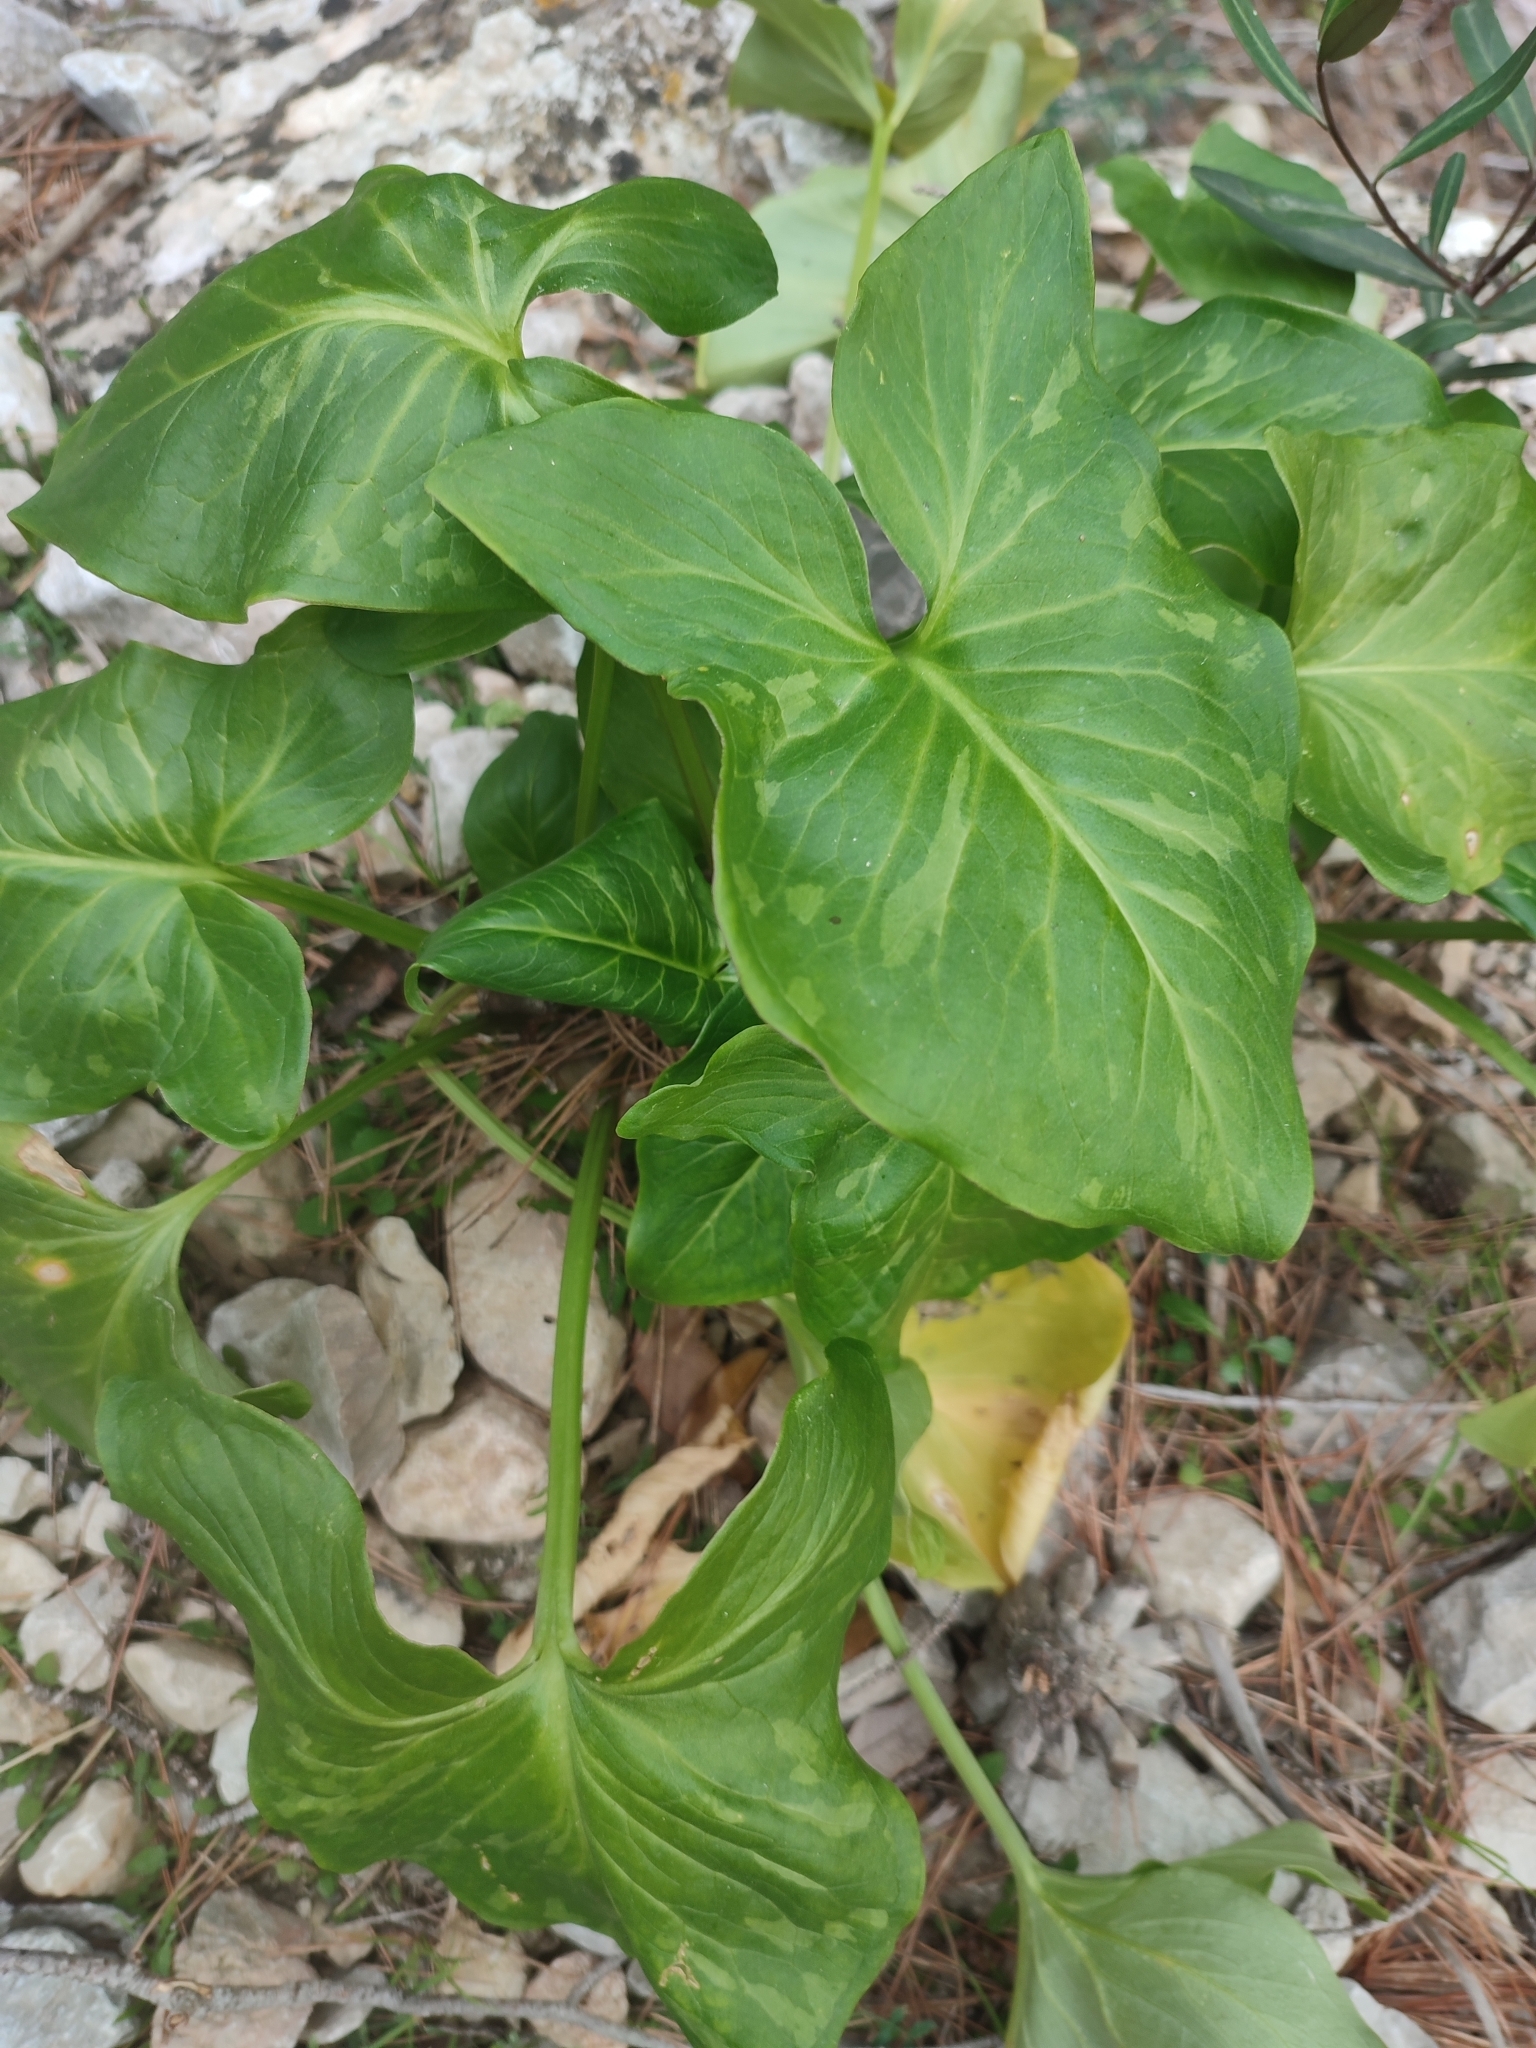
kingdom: Plantae
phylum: Tracheophyta
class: Liliopsida
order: Alismatales
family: Araceae
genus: Arum
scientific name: Arum italicum
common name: Italian lords-and-ladies
